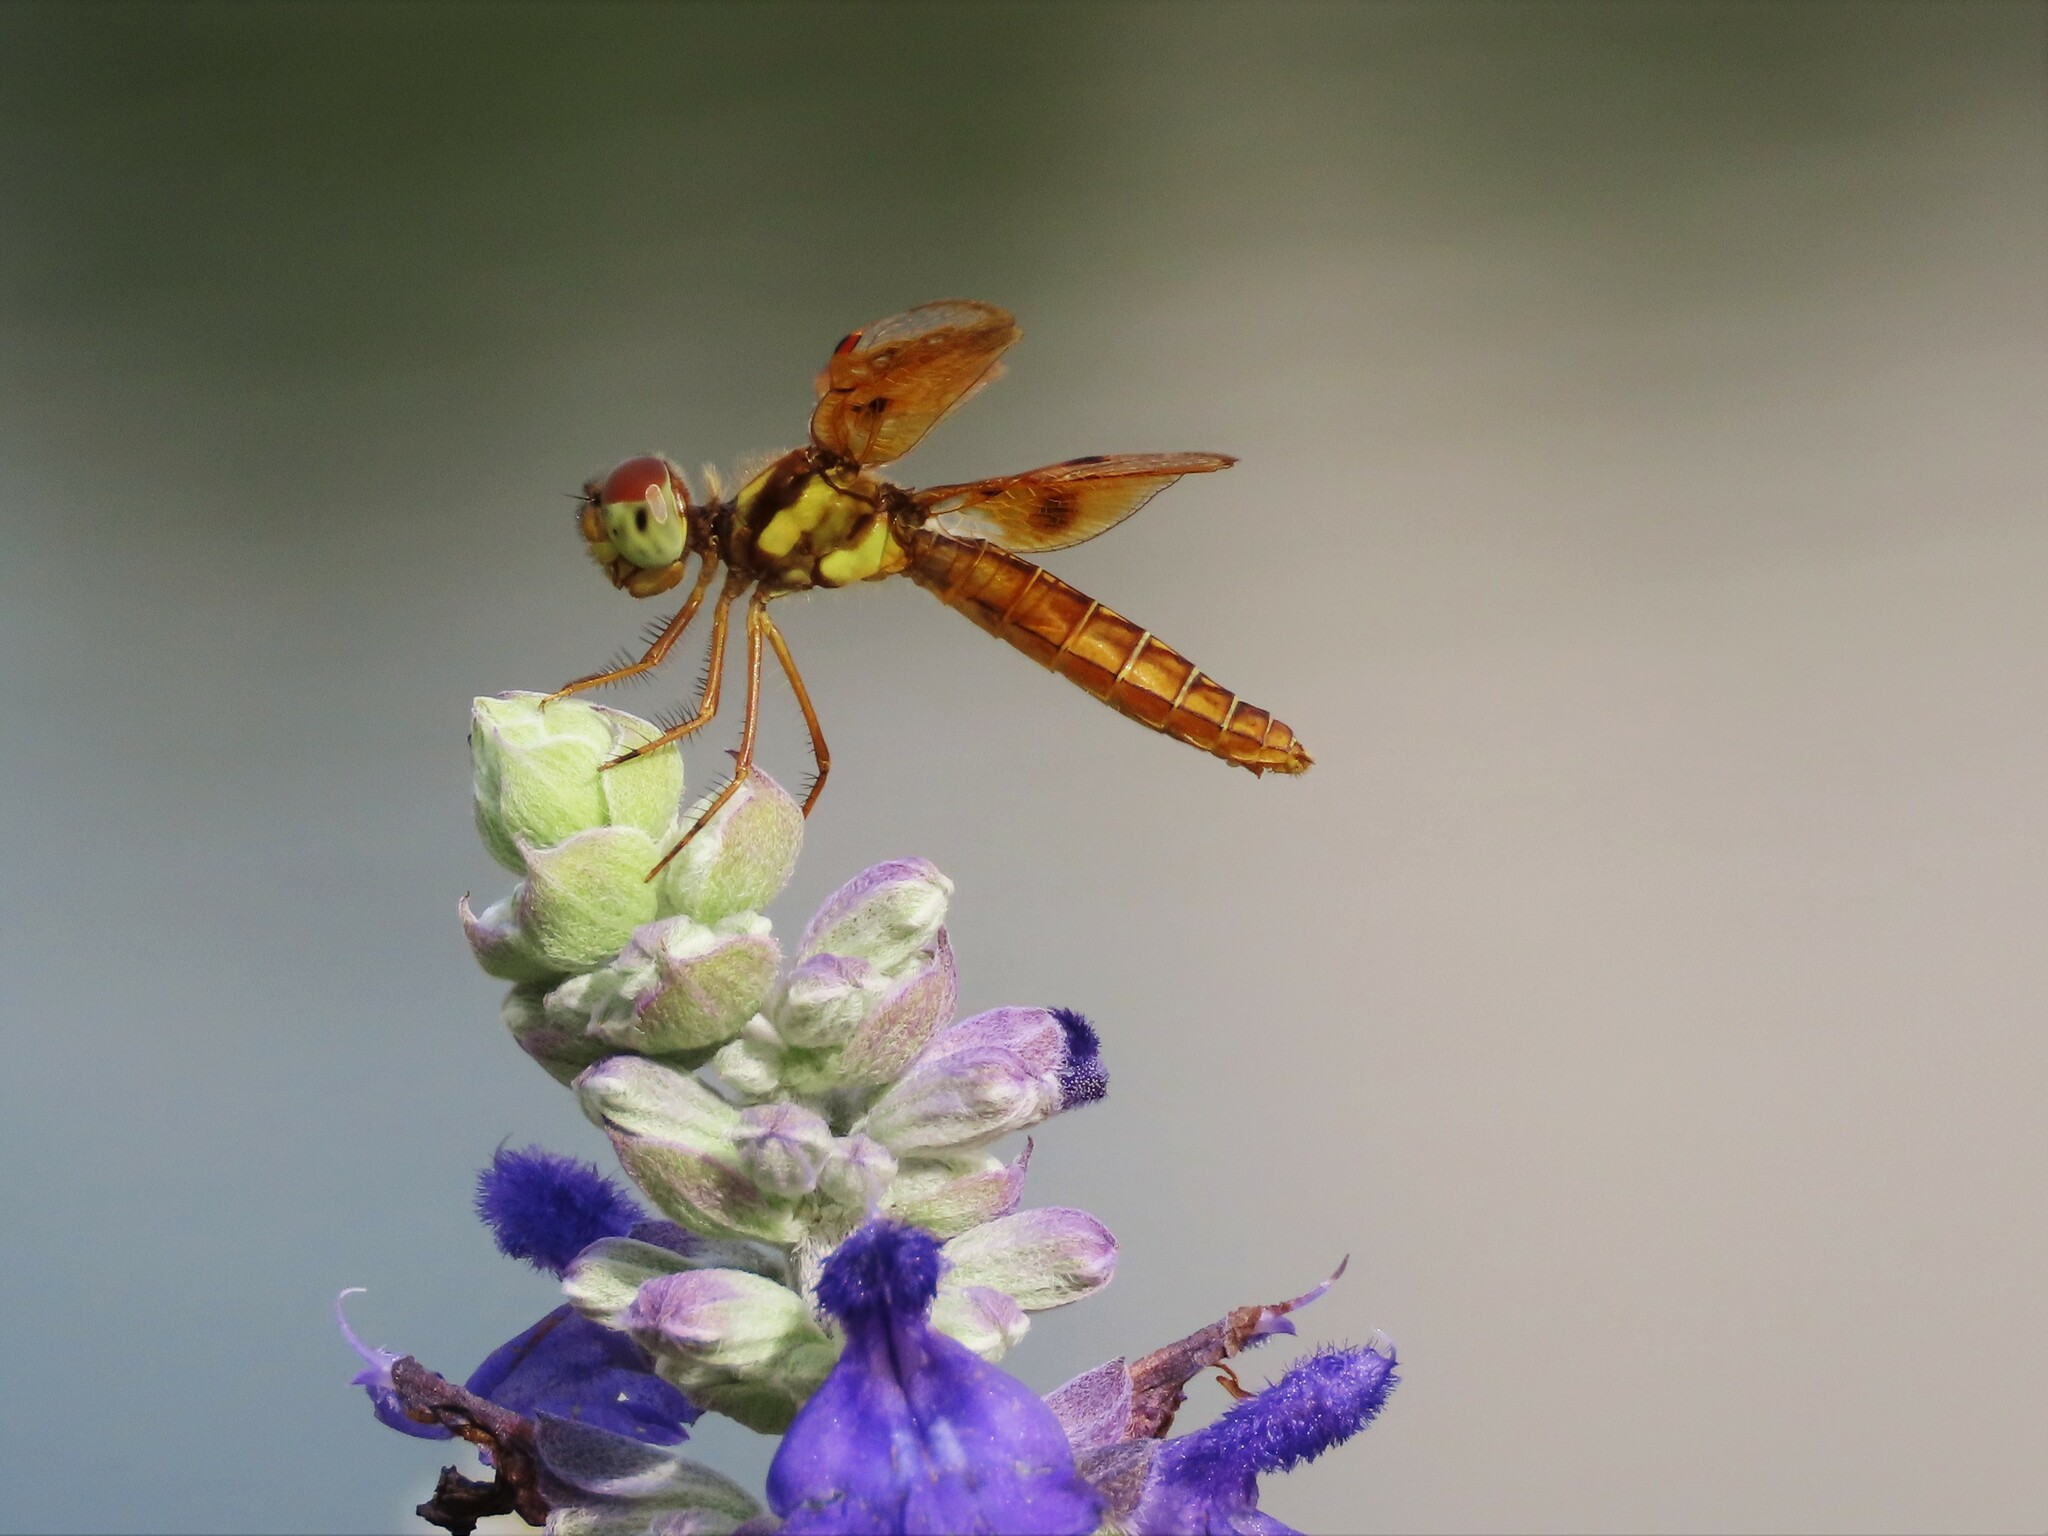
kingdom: Animalia
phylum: Arthropoda
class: Insecta
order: Odonata
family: Libellulidae
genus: Perithemis
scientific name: Perithemis tenera
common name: Eastern amberwing
